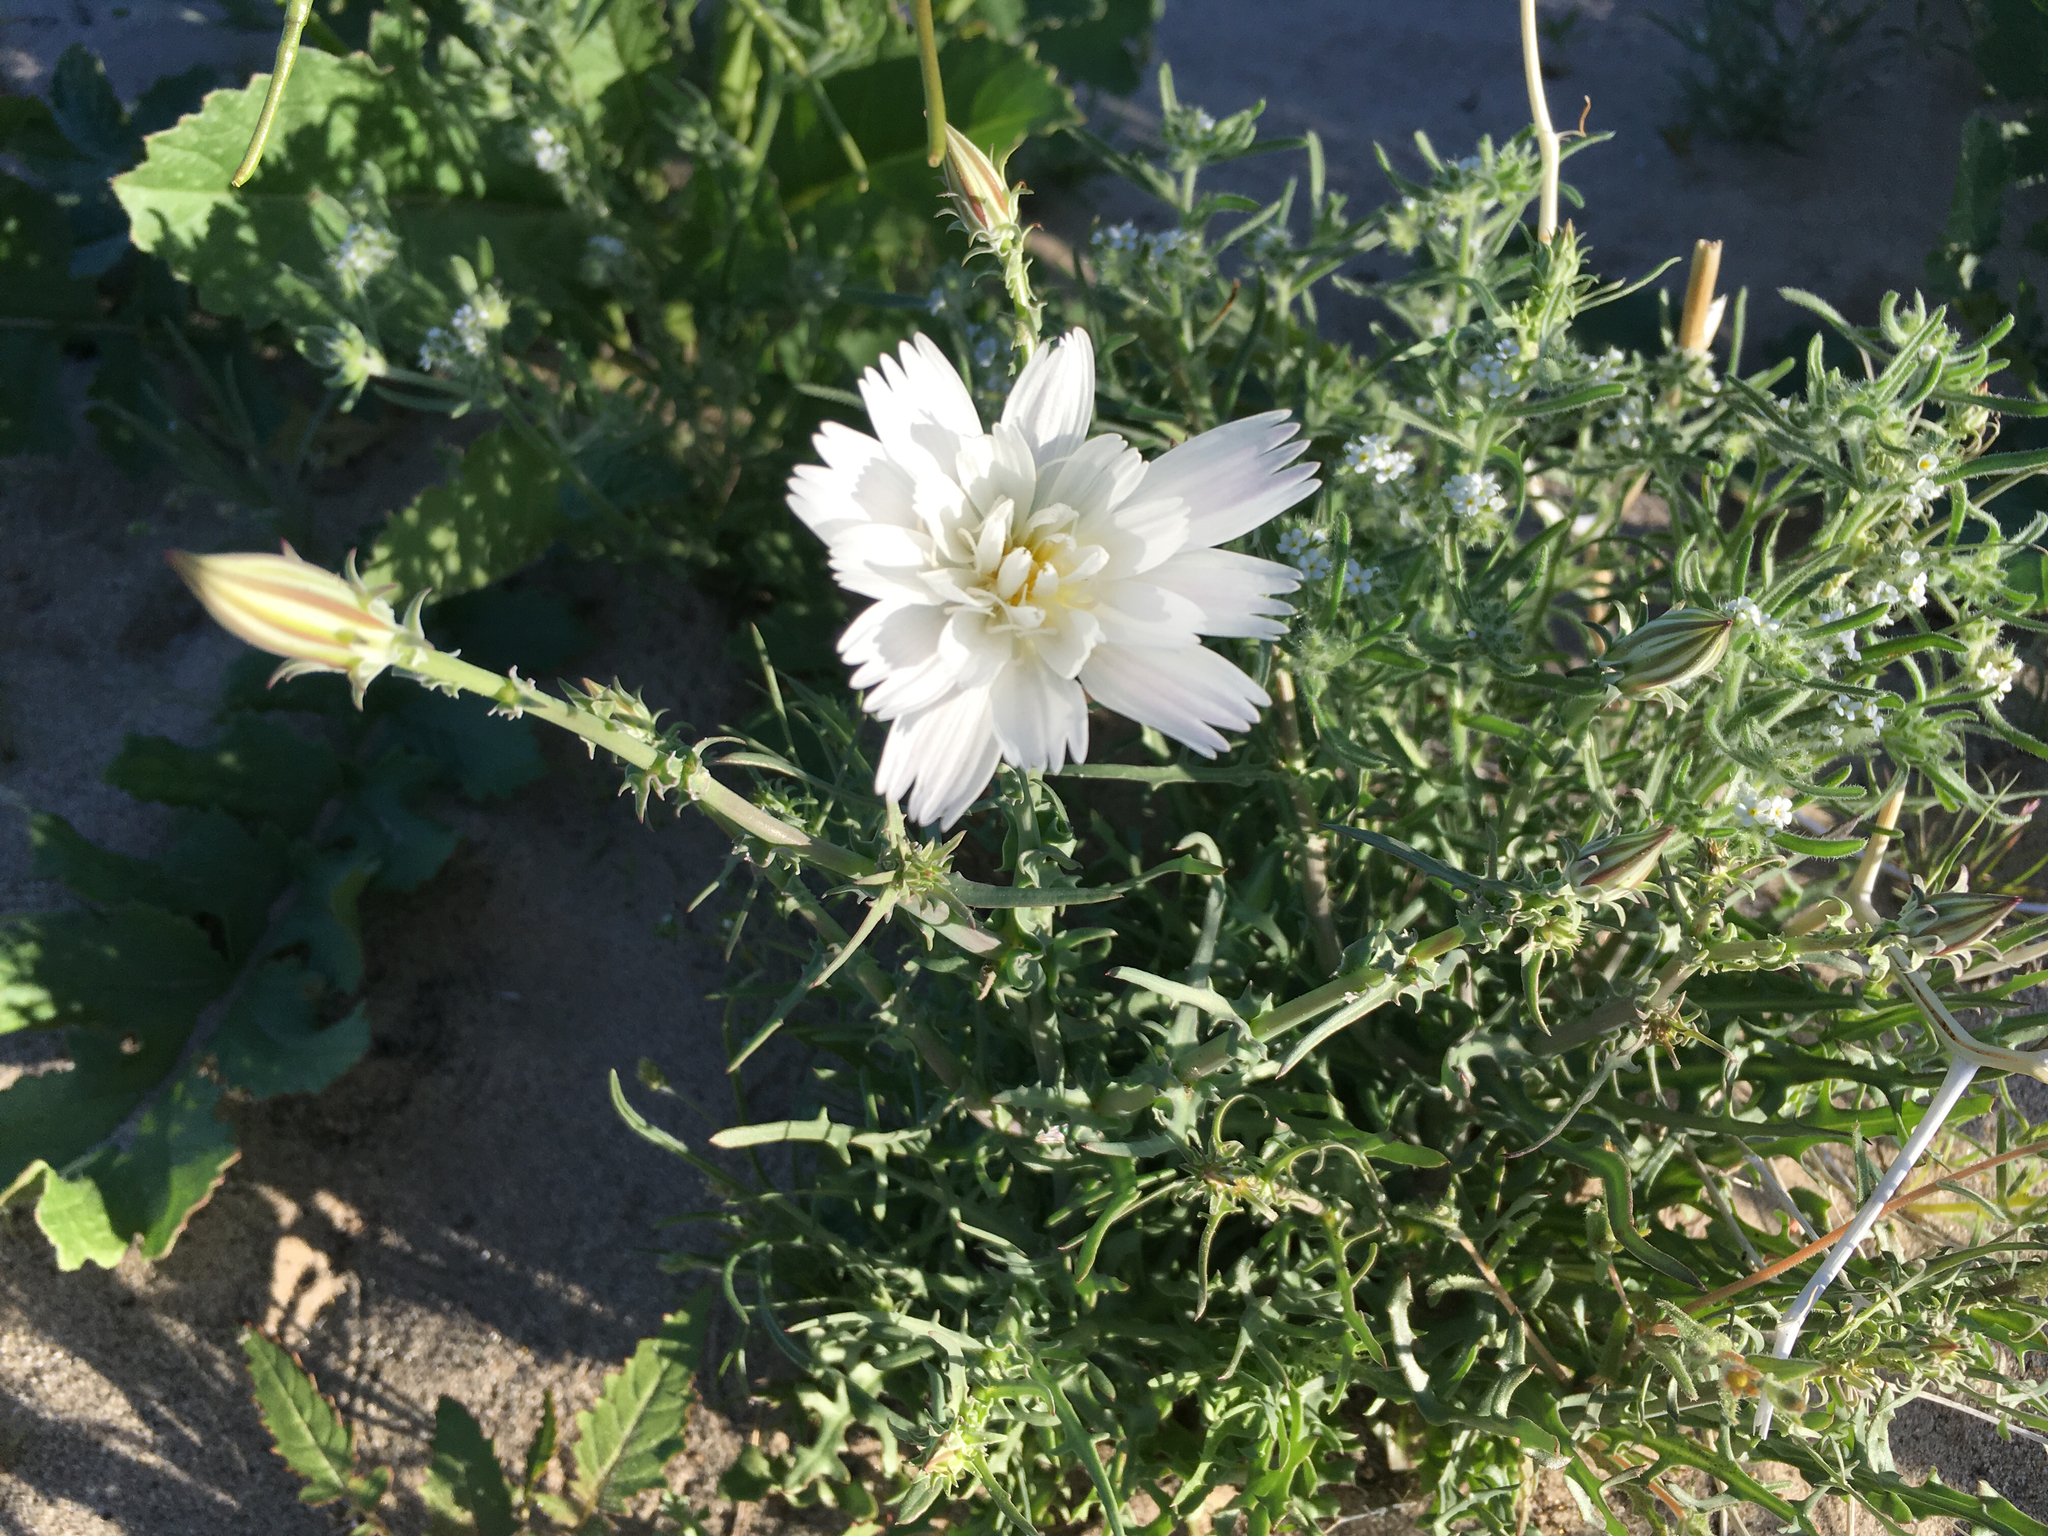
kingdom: Plantae
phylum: Tracheophyta
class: Magnoliopsida
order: Asterales
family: Asteraceae
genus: Rafinesquia
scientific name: Rafinesquia neomexicana
